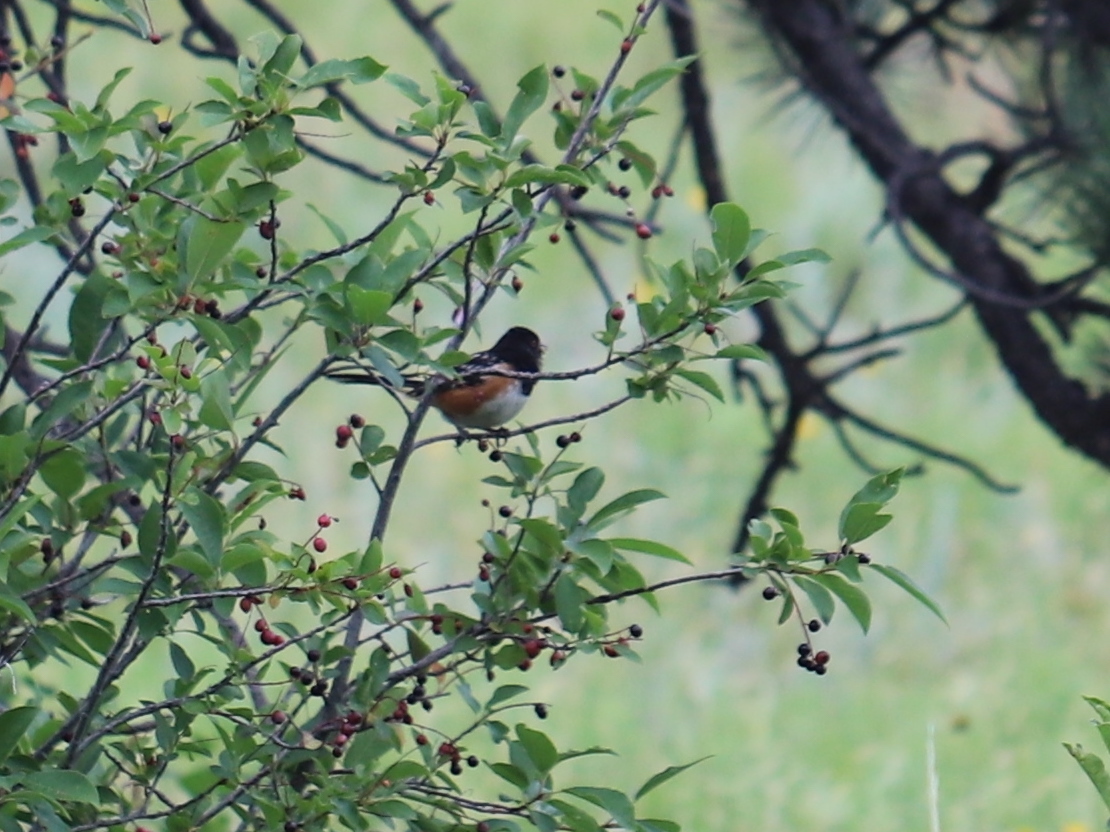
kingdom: Animalia
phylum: Chordata
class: Aves
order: Passeriformes
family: Passerellidae
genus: Pipilo
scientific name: Pipilo maculatus
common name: Spotted towhee
